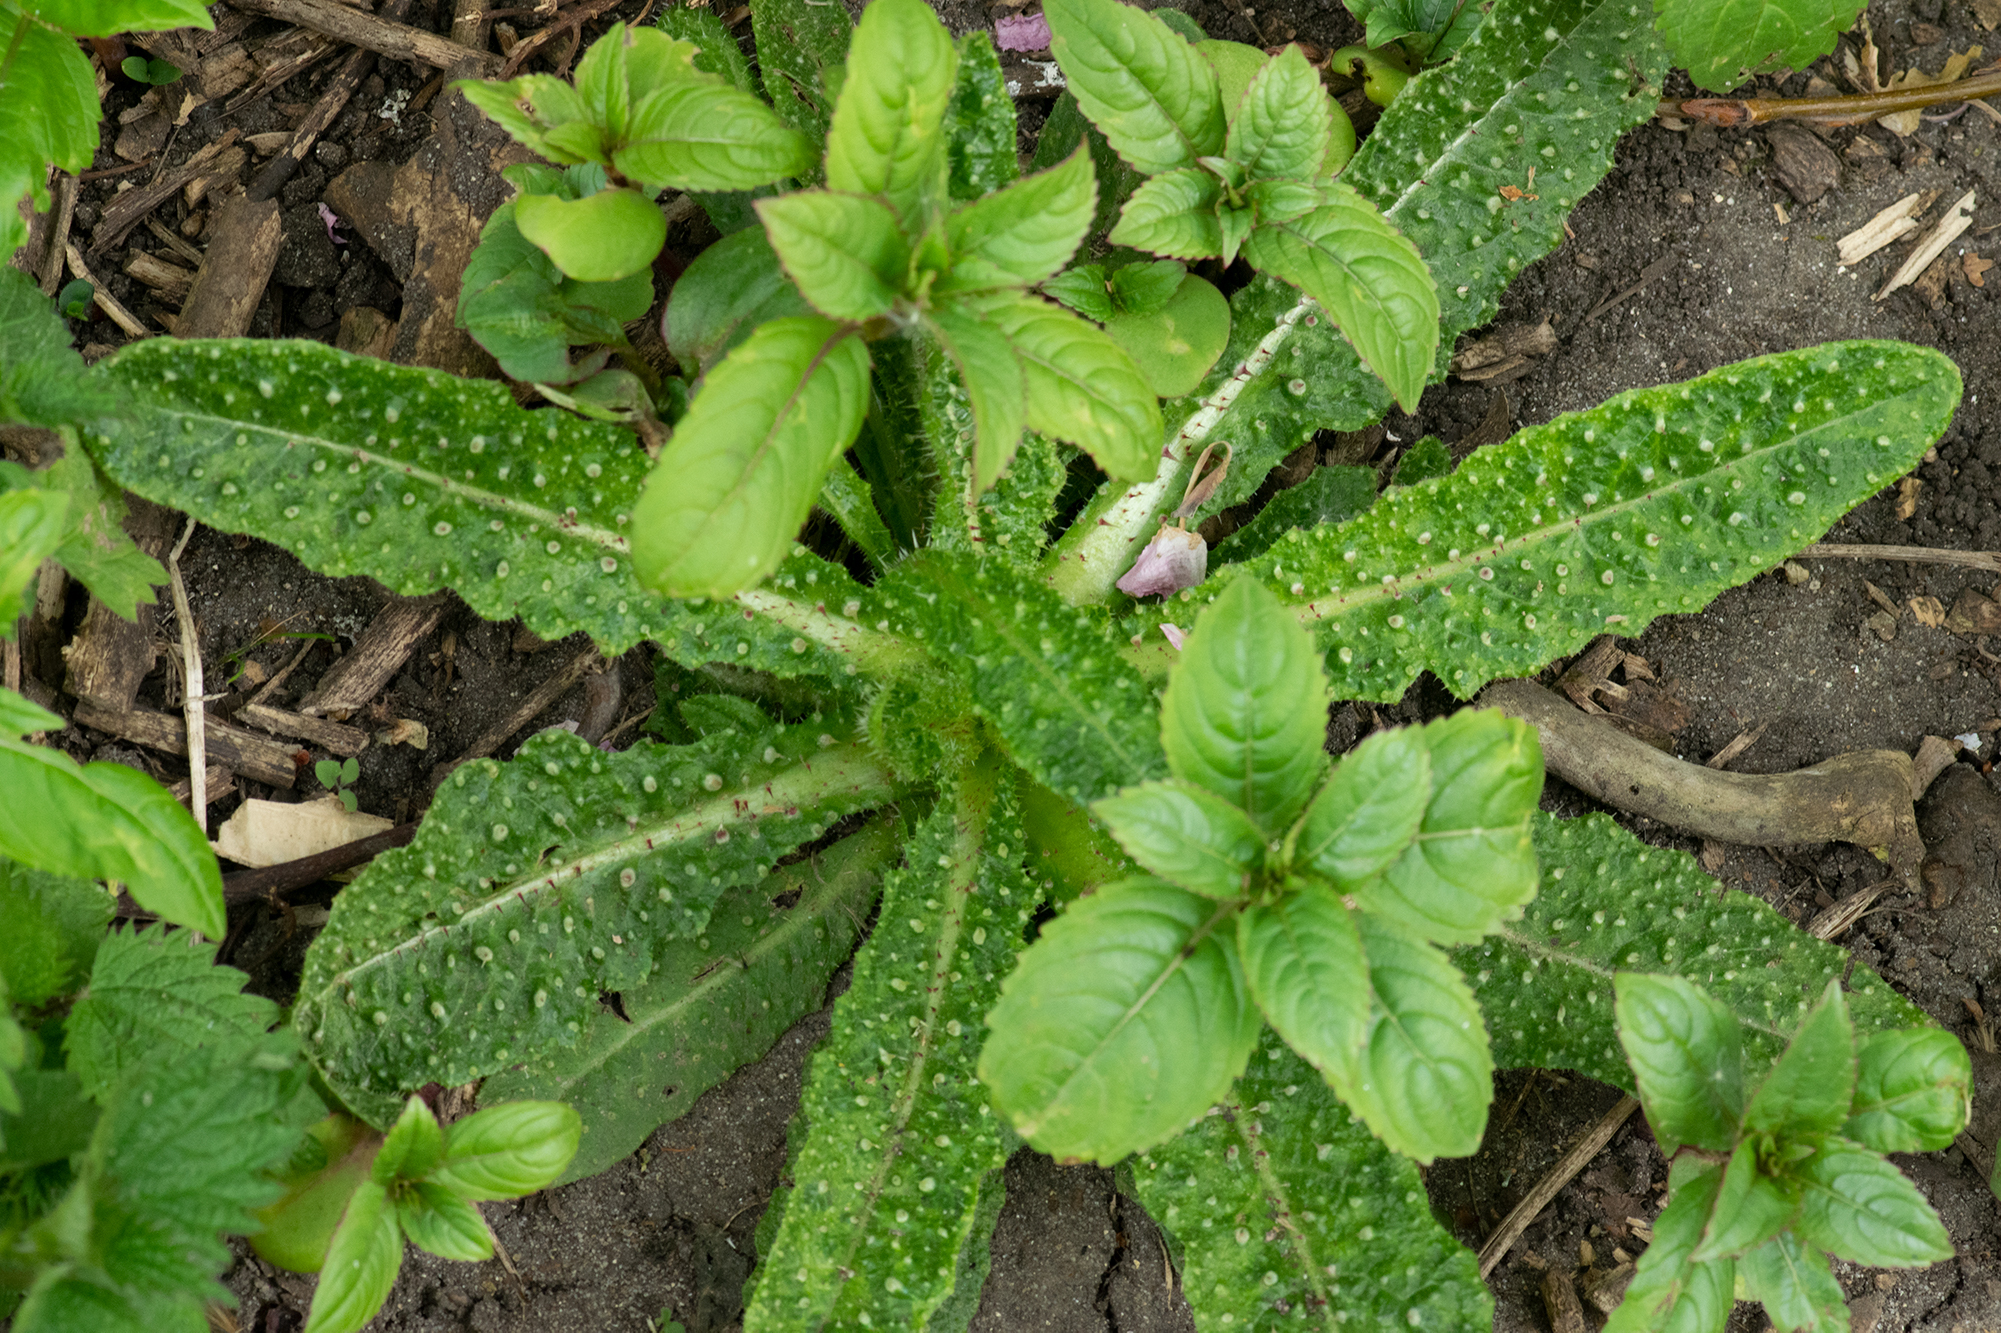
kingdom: Plantae
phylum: Tracheophyta
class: Magnoliopsida
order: Asterales
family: Asteraceae
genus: Helminthotheca
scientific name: Helminthotheca echioides
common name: Ox-tongue
